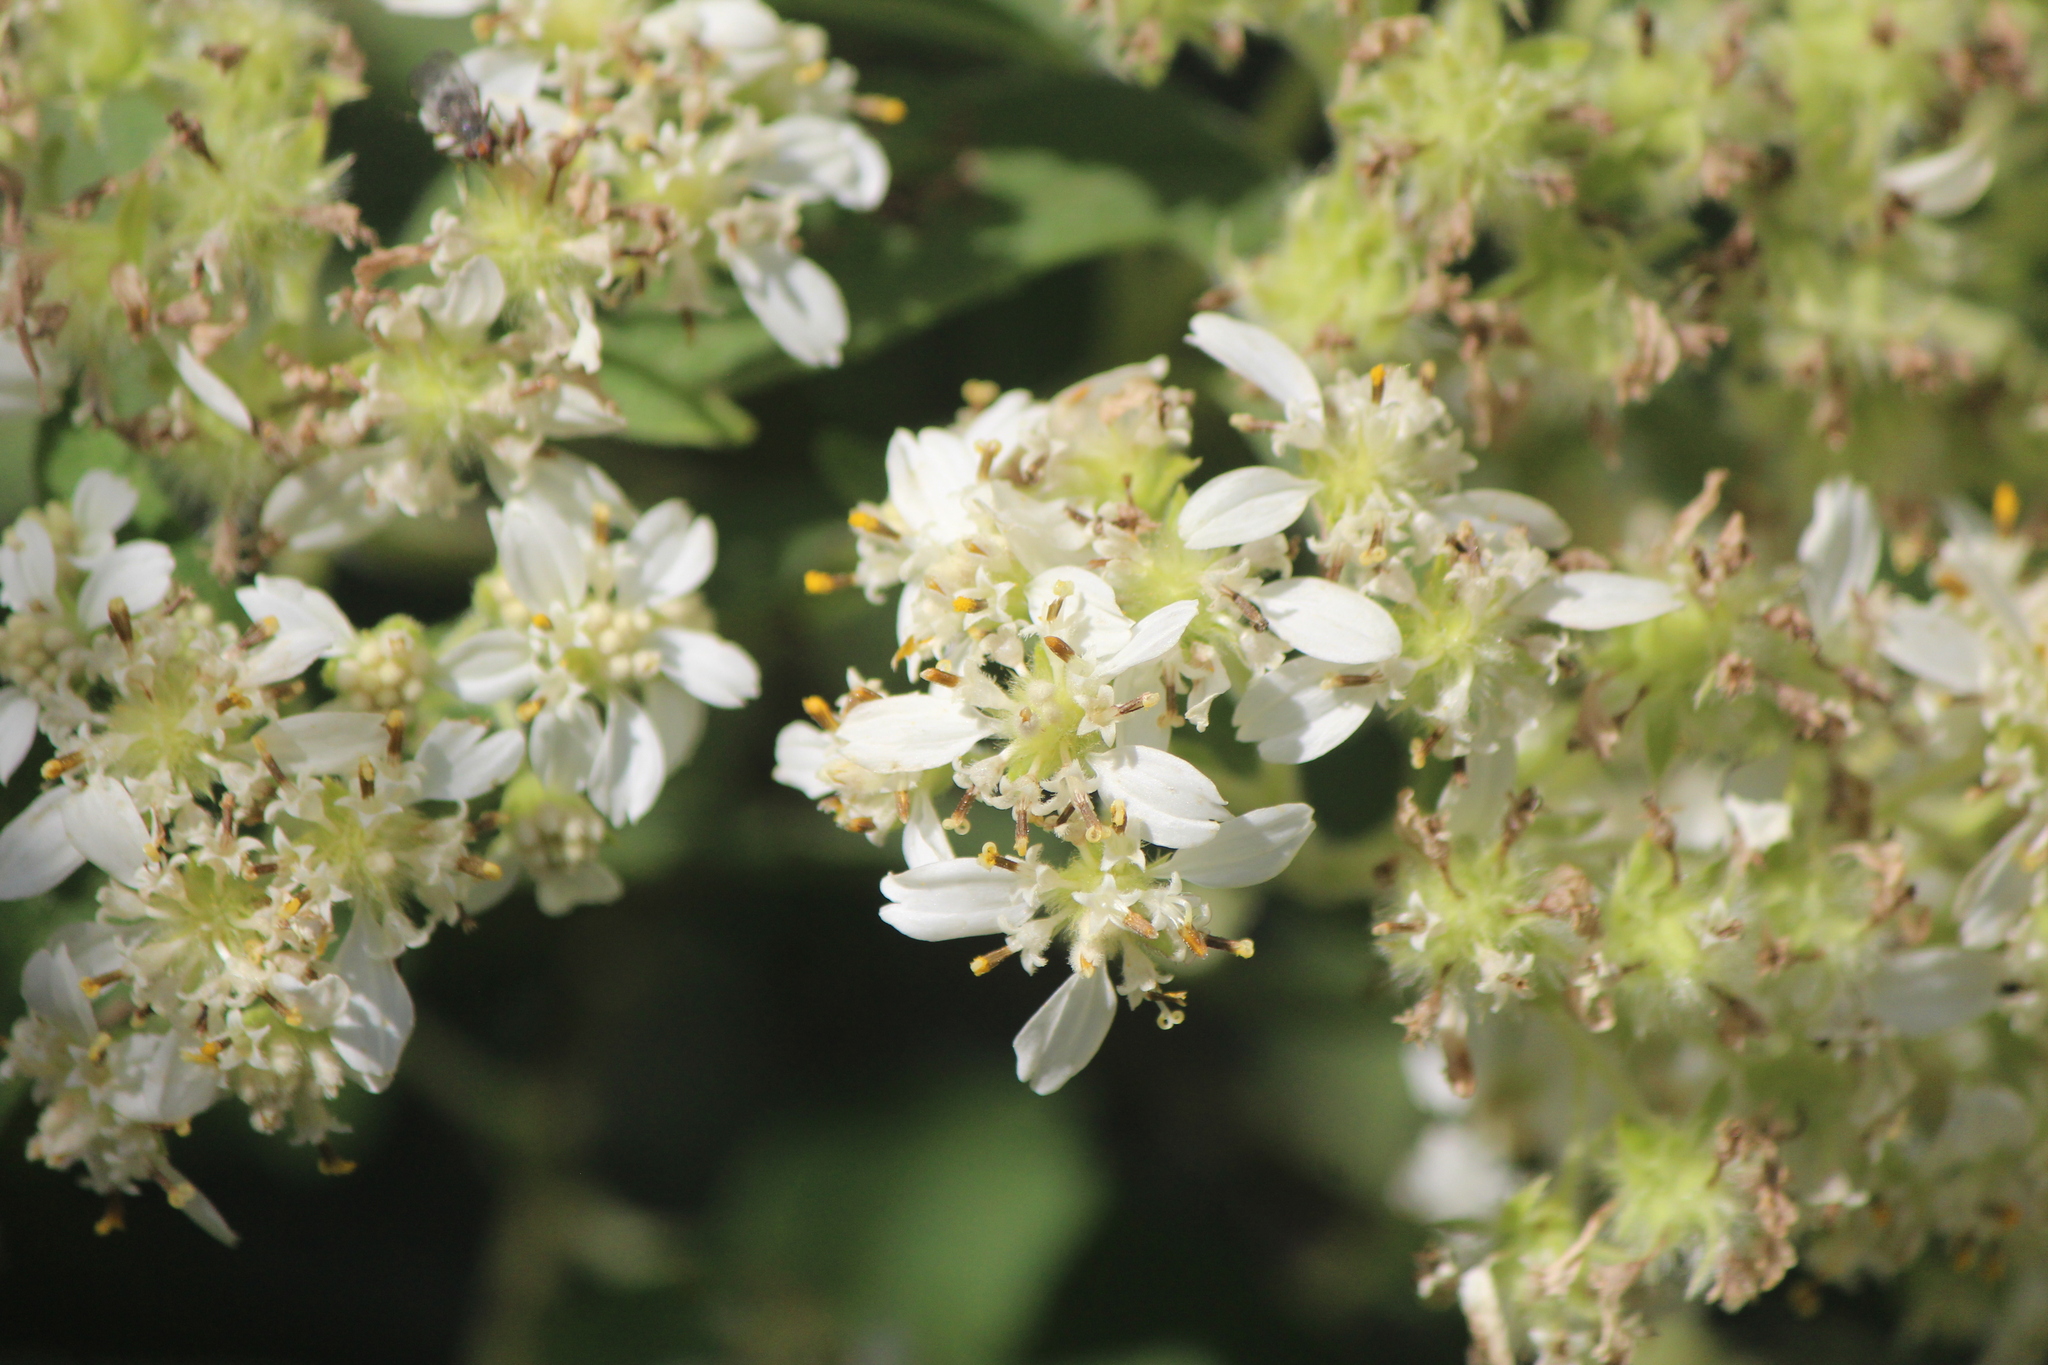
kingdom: Plantae
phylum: Tracheophyta
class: Magnoliopsida
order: Asterales
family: Asteraceae
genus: Montanoa
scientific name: Montanoa tomentosa
